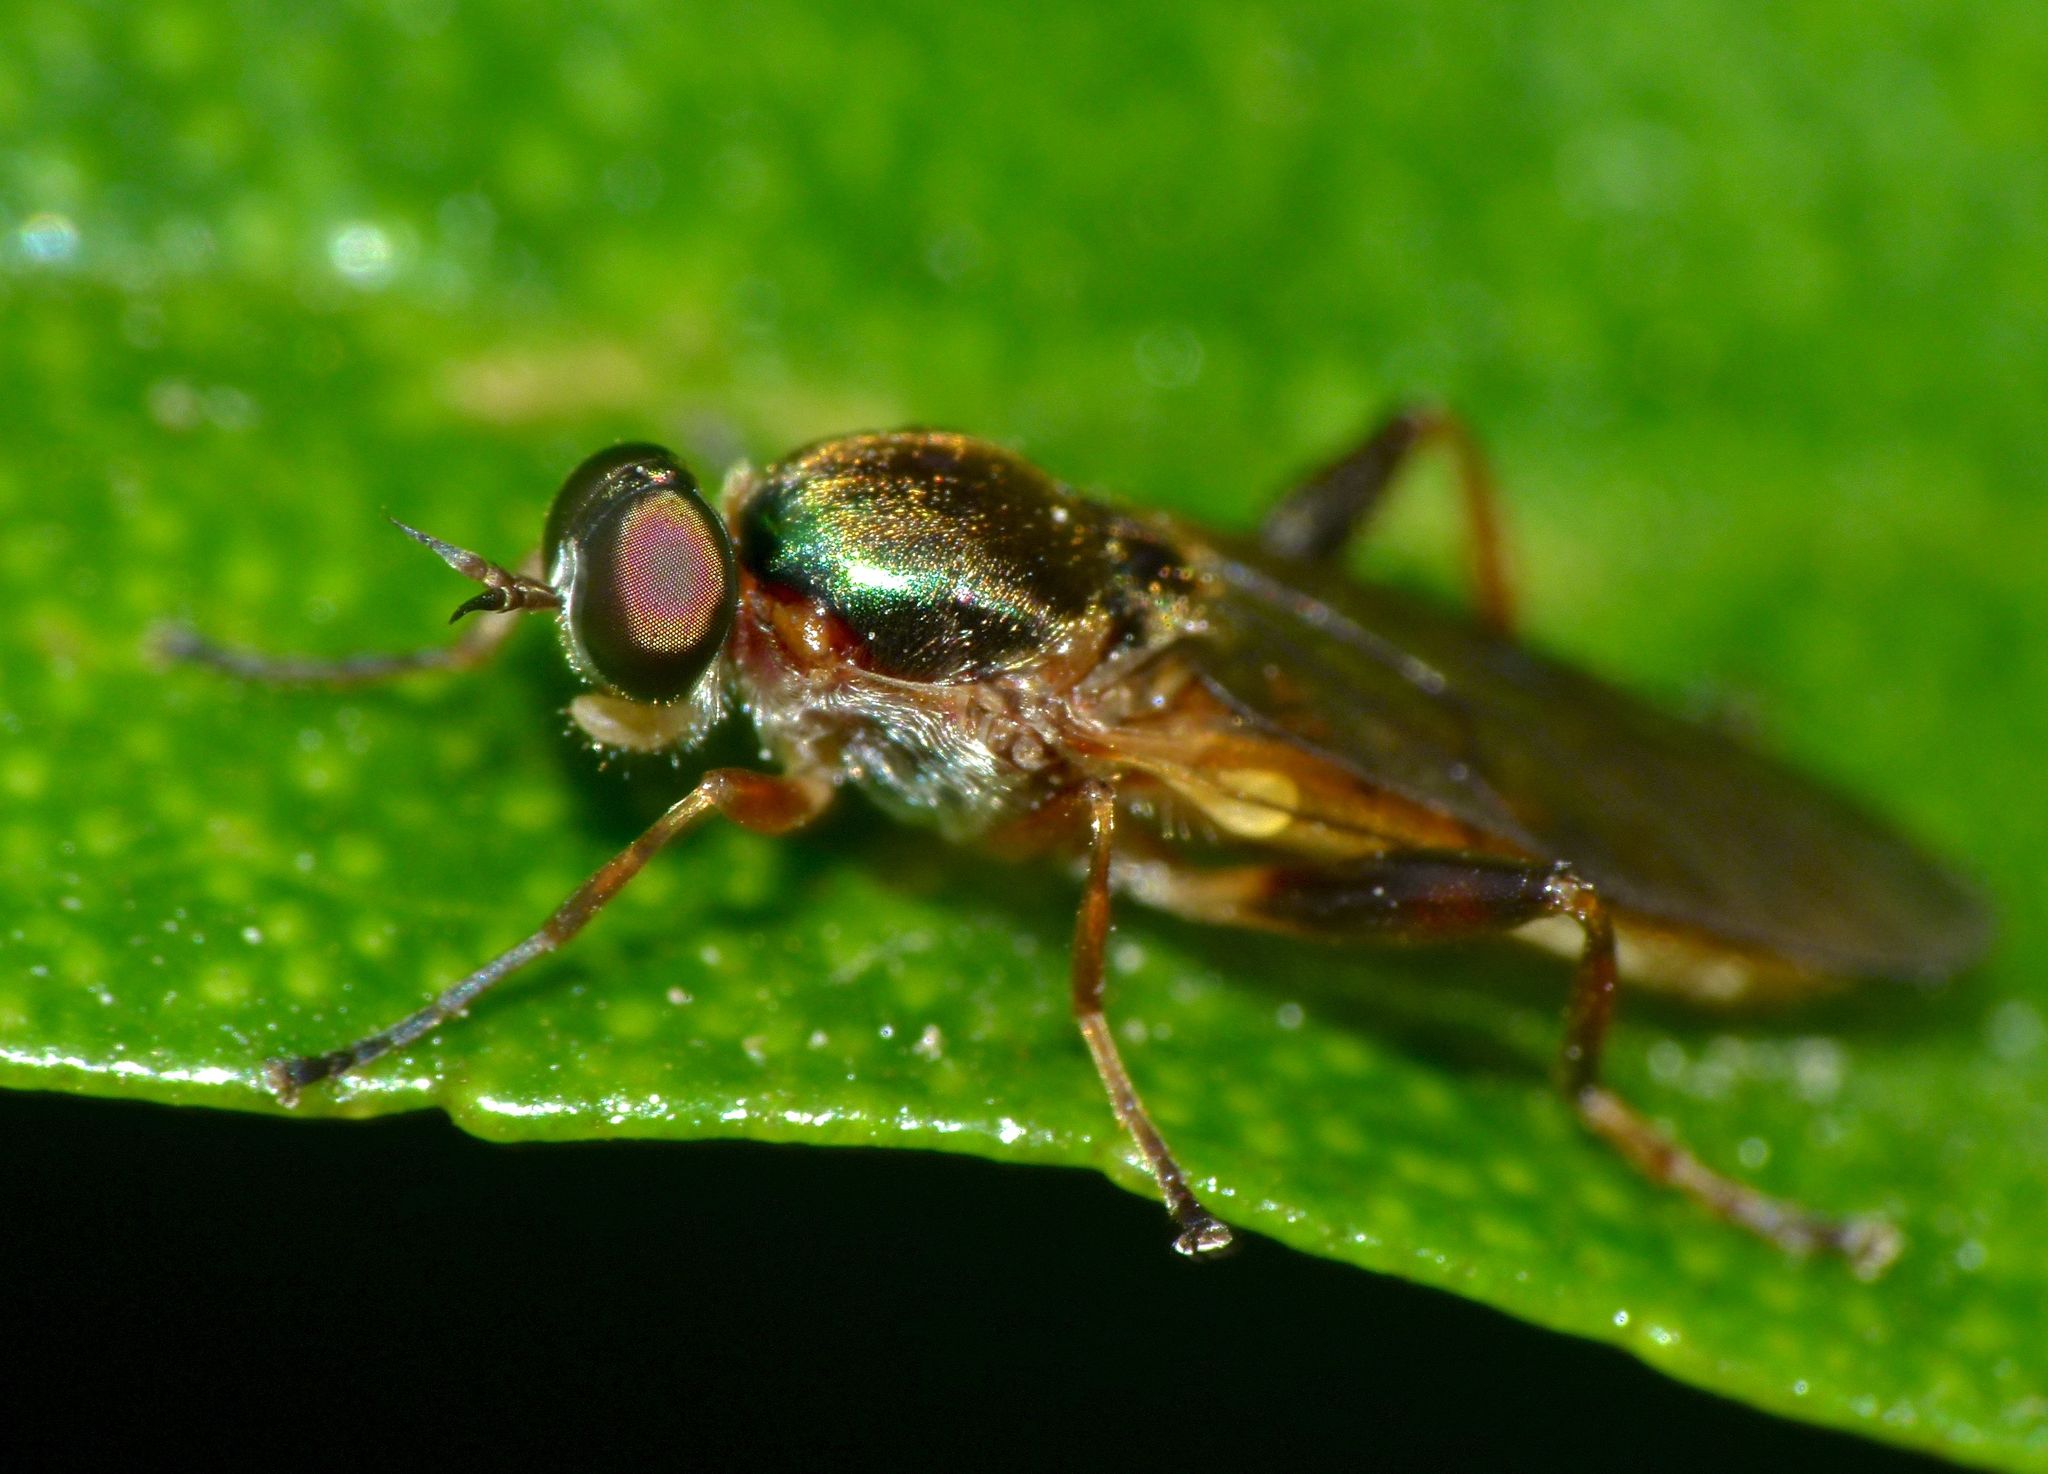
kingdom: Animalia
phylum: Arthropoda
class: Insecta
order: Diptera
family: Stratiomyidae
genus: Neactina
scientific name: Neactina simmondsii
